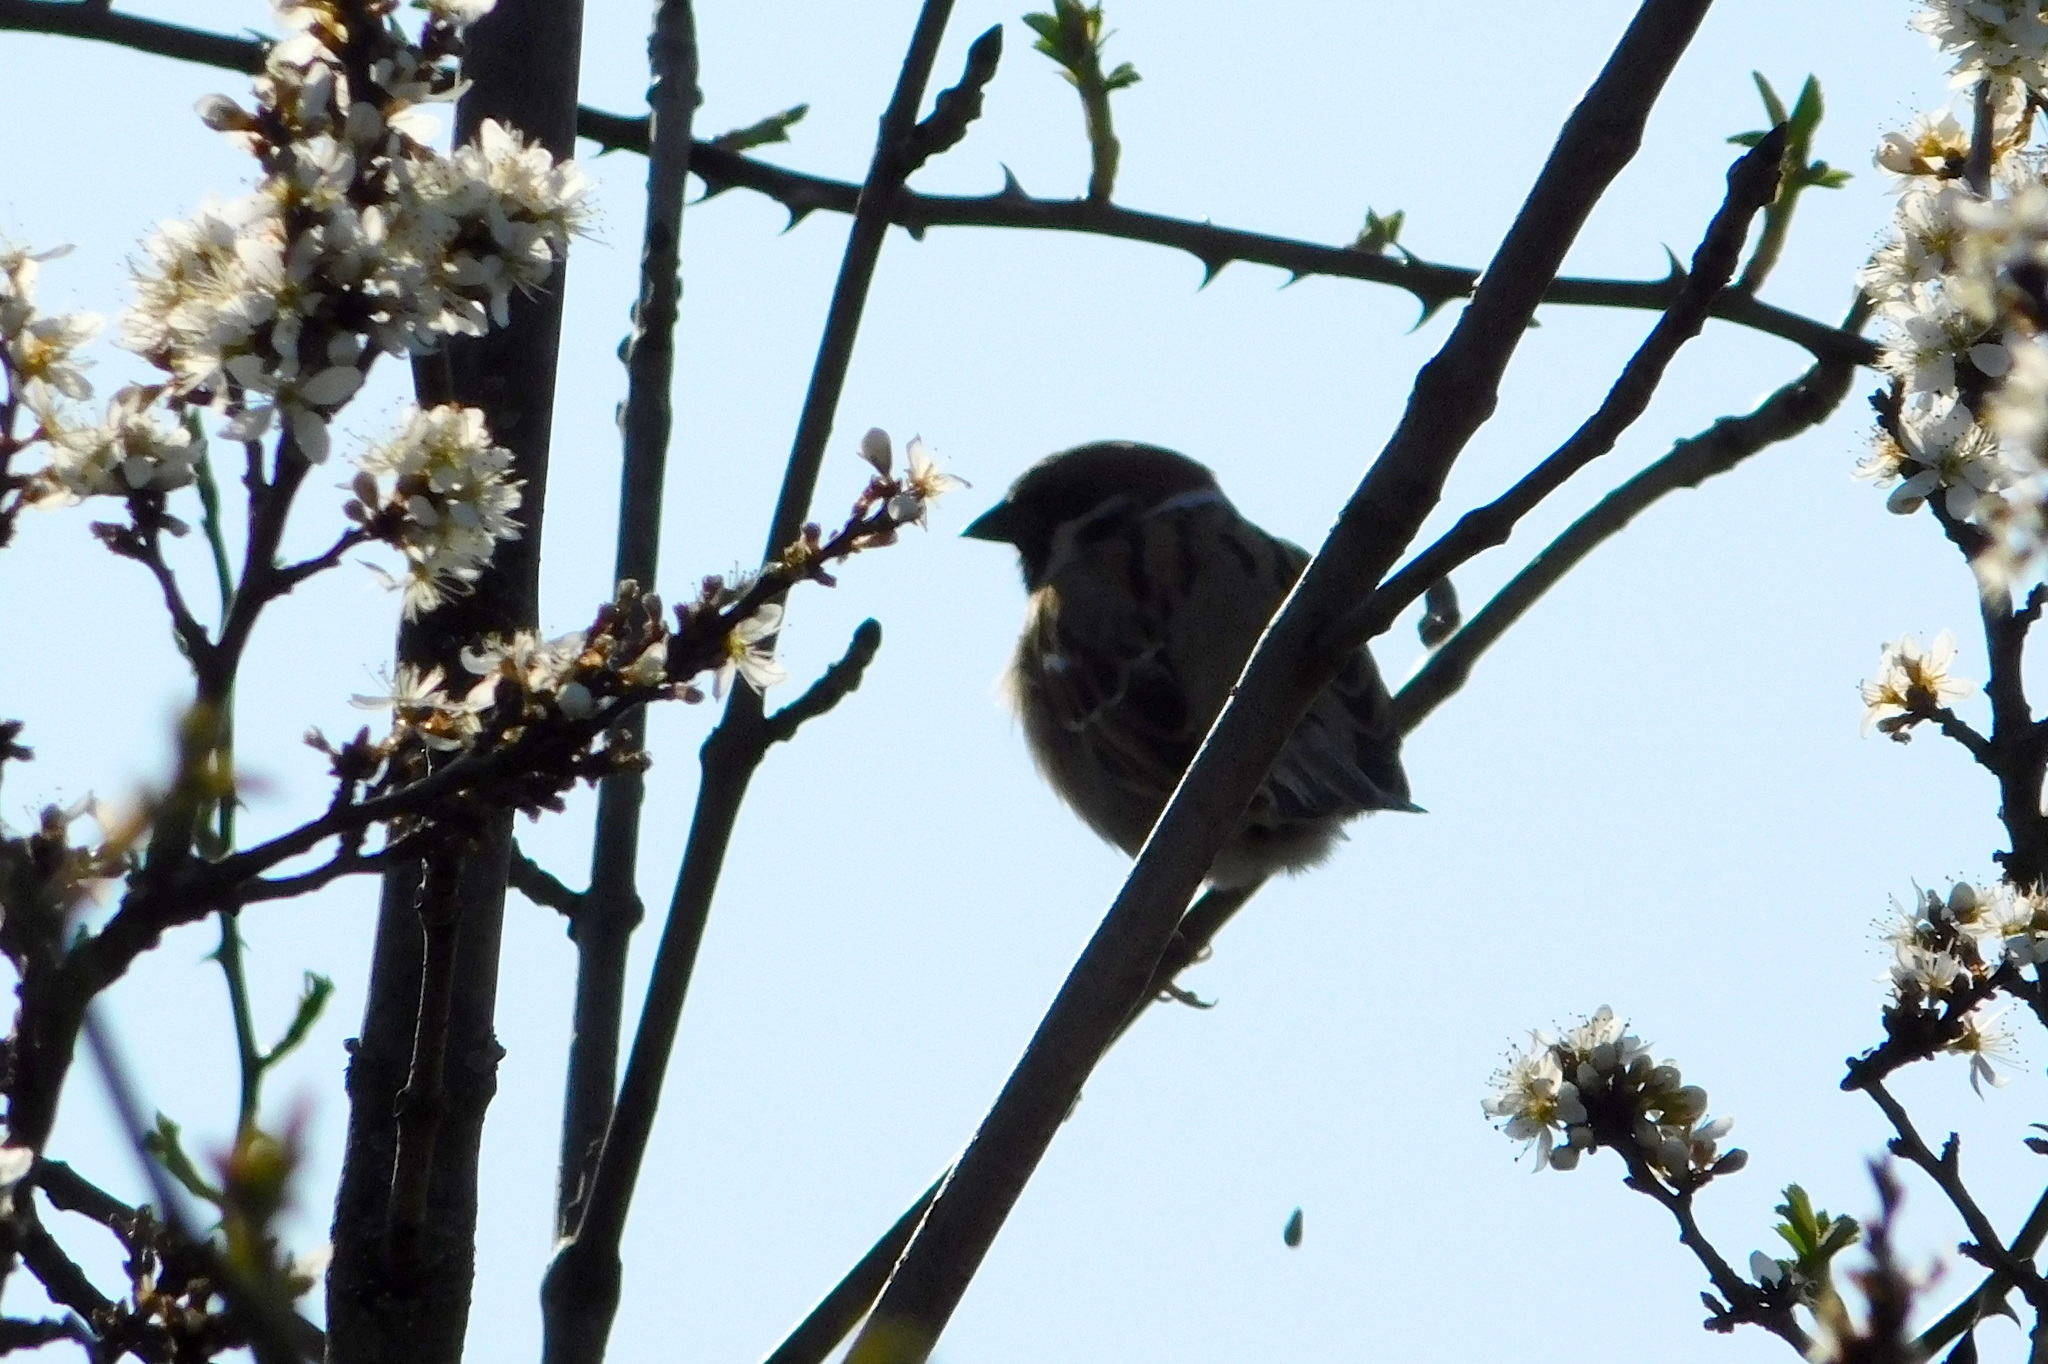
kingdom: Animalia
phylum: Chordata
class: Aves
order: Passeriformes
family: Passeridae
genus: Passer
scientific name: Passer montanus
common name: Eurasian tree sparrow
